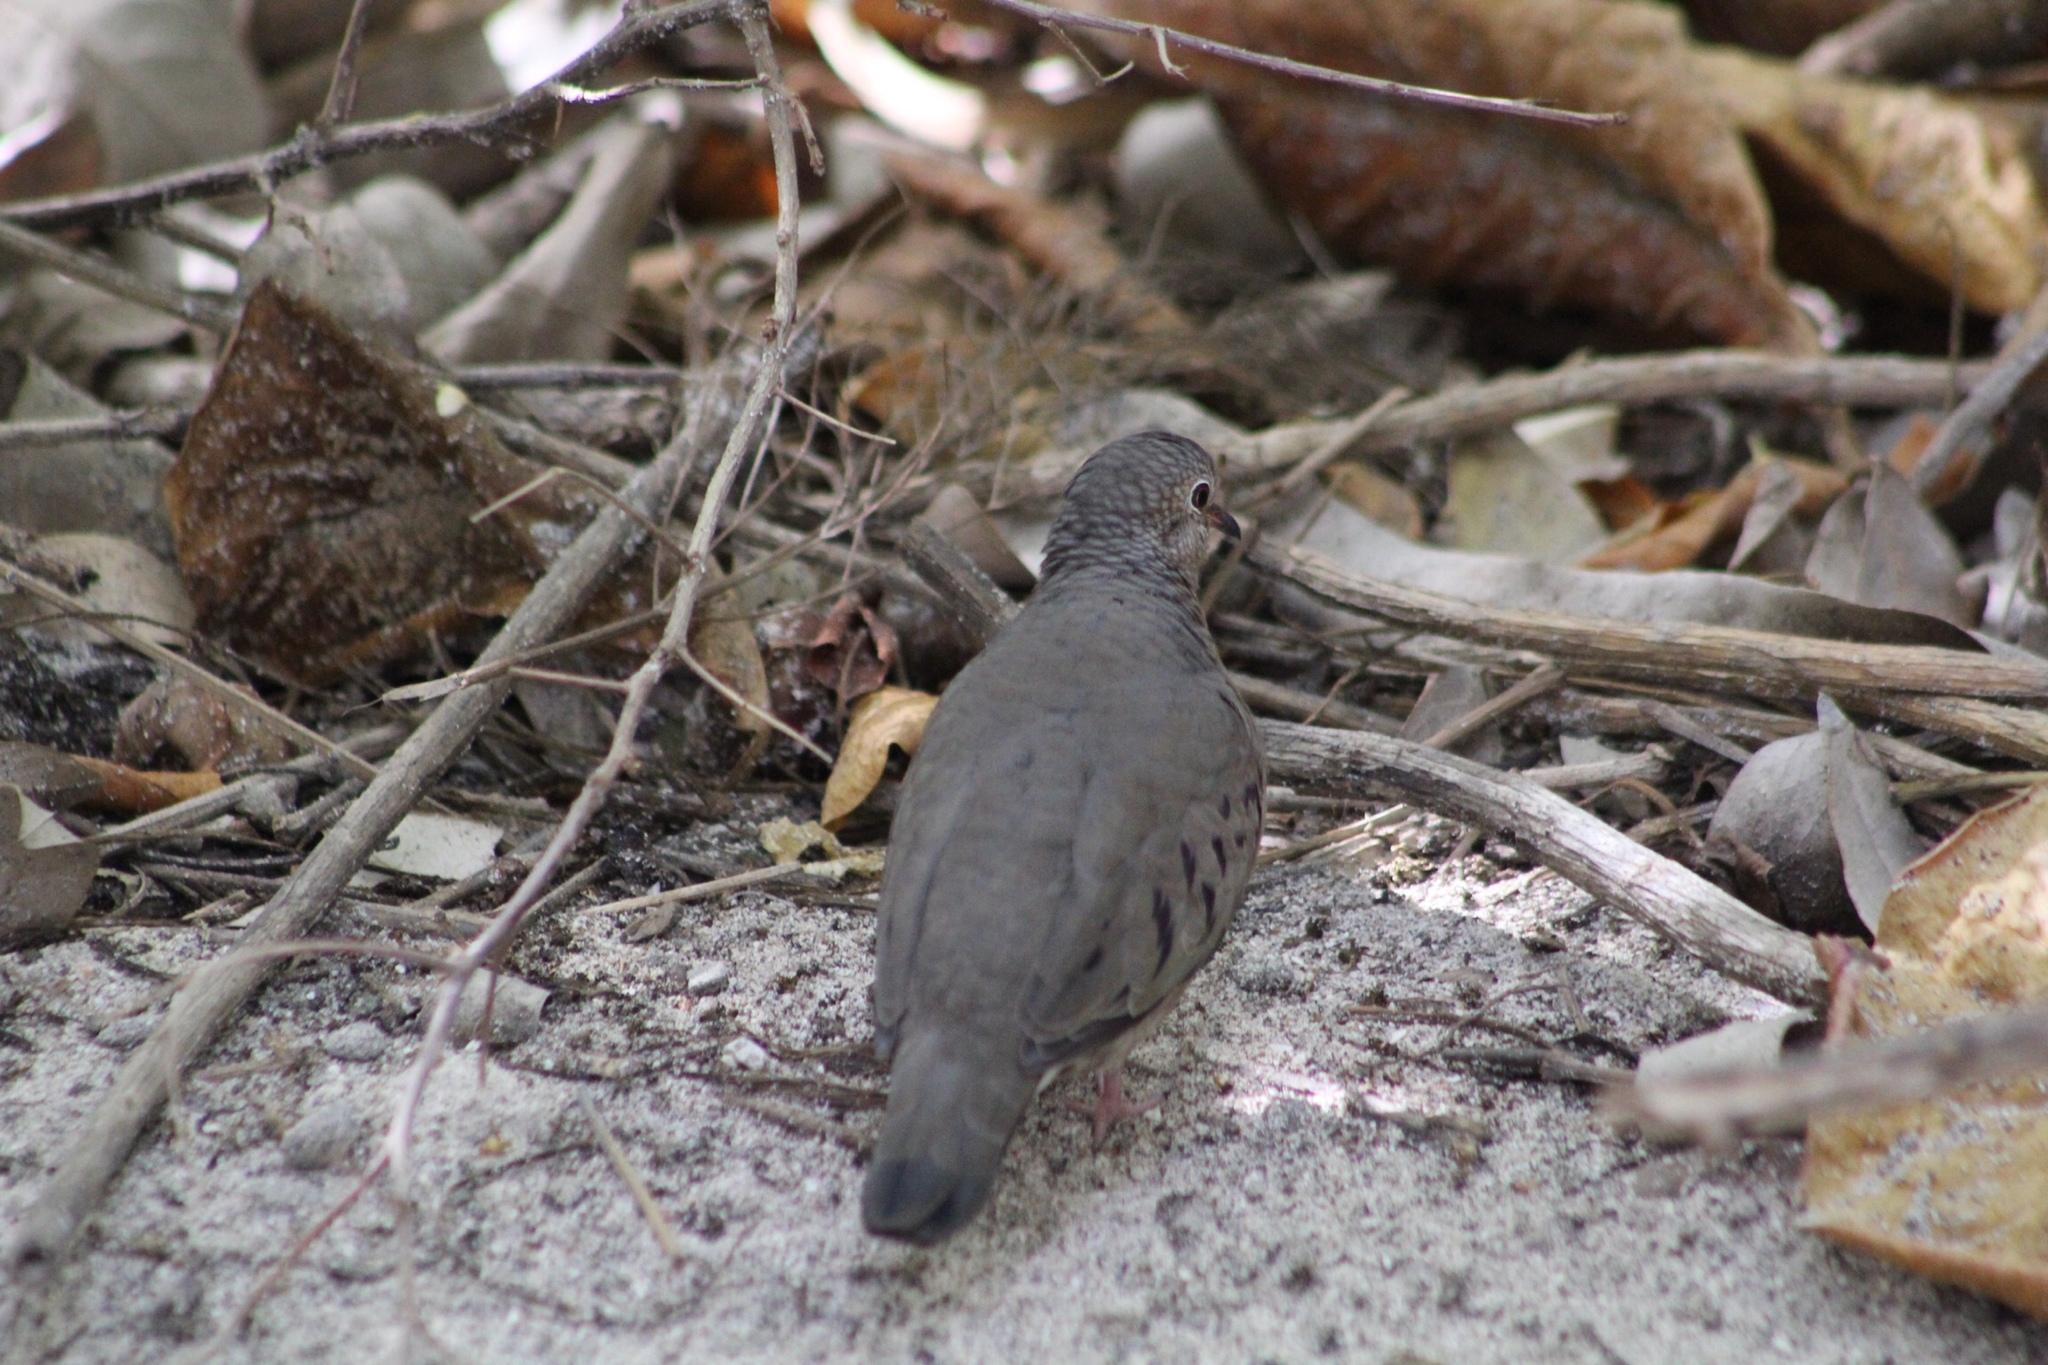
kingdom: Animalia
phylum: Chordata
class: Aves
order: Columbiformes
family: Columbidae
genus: Columbina
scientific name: Columbina passerina
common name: Common ground-dove
